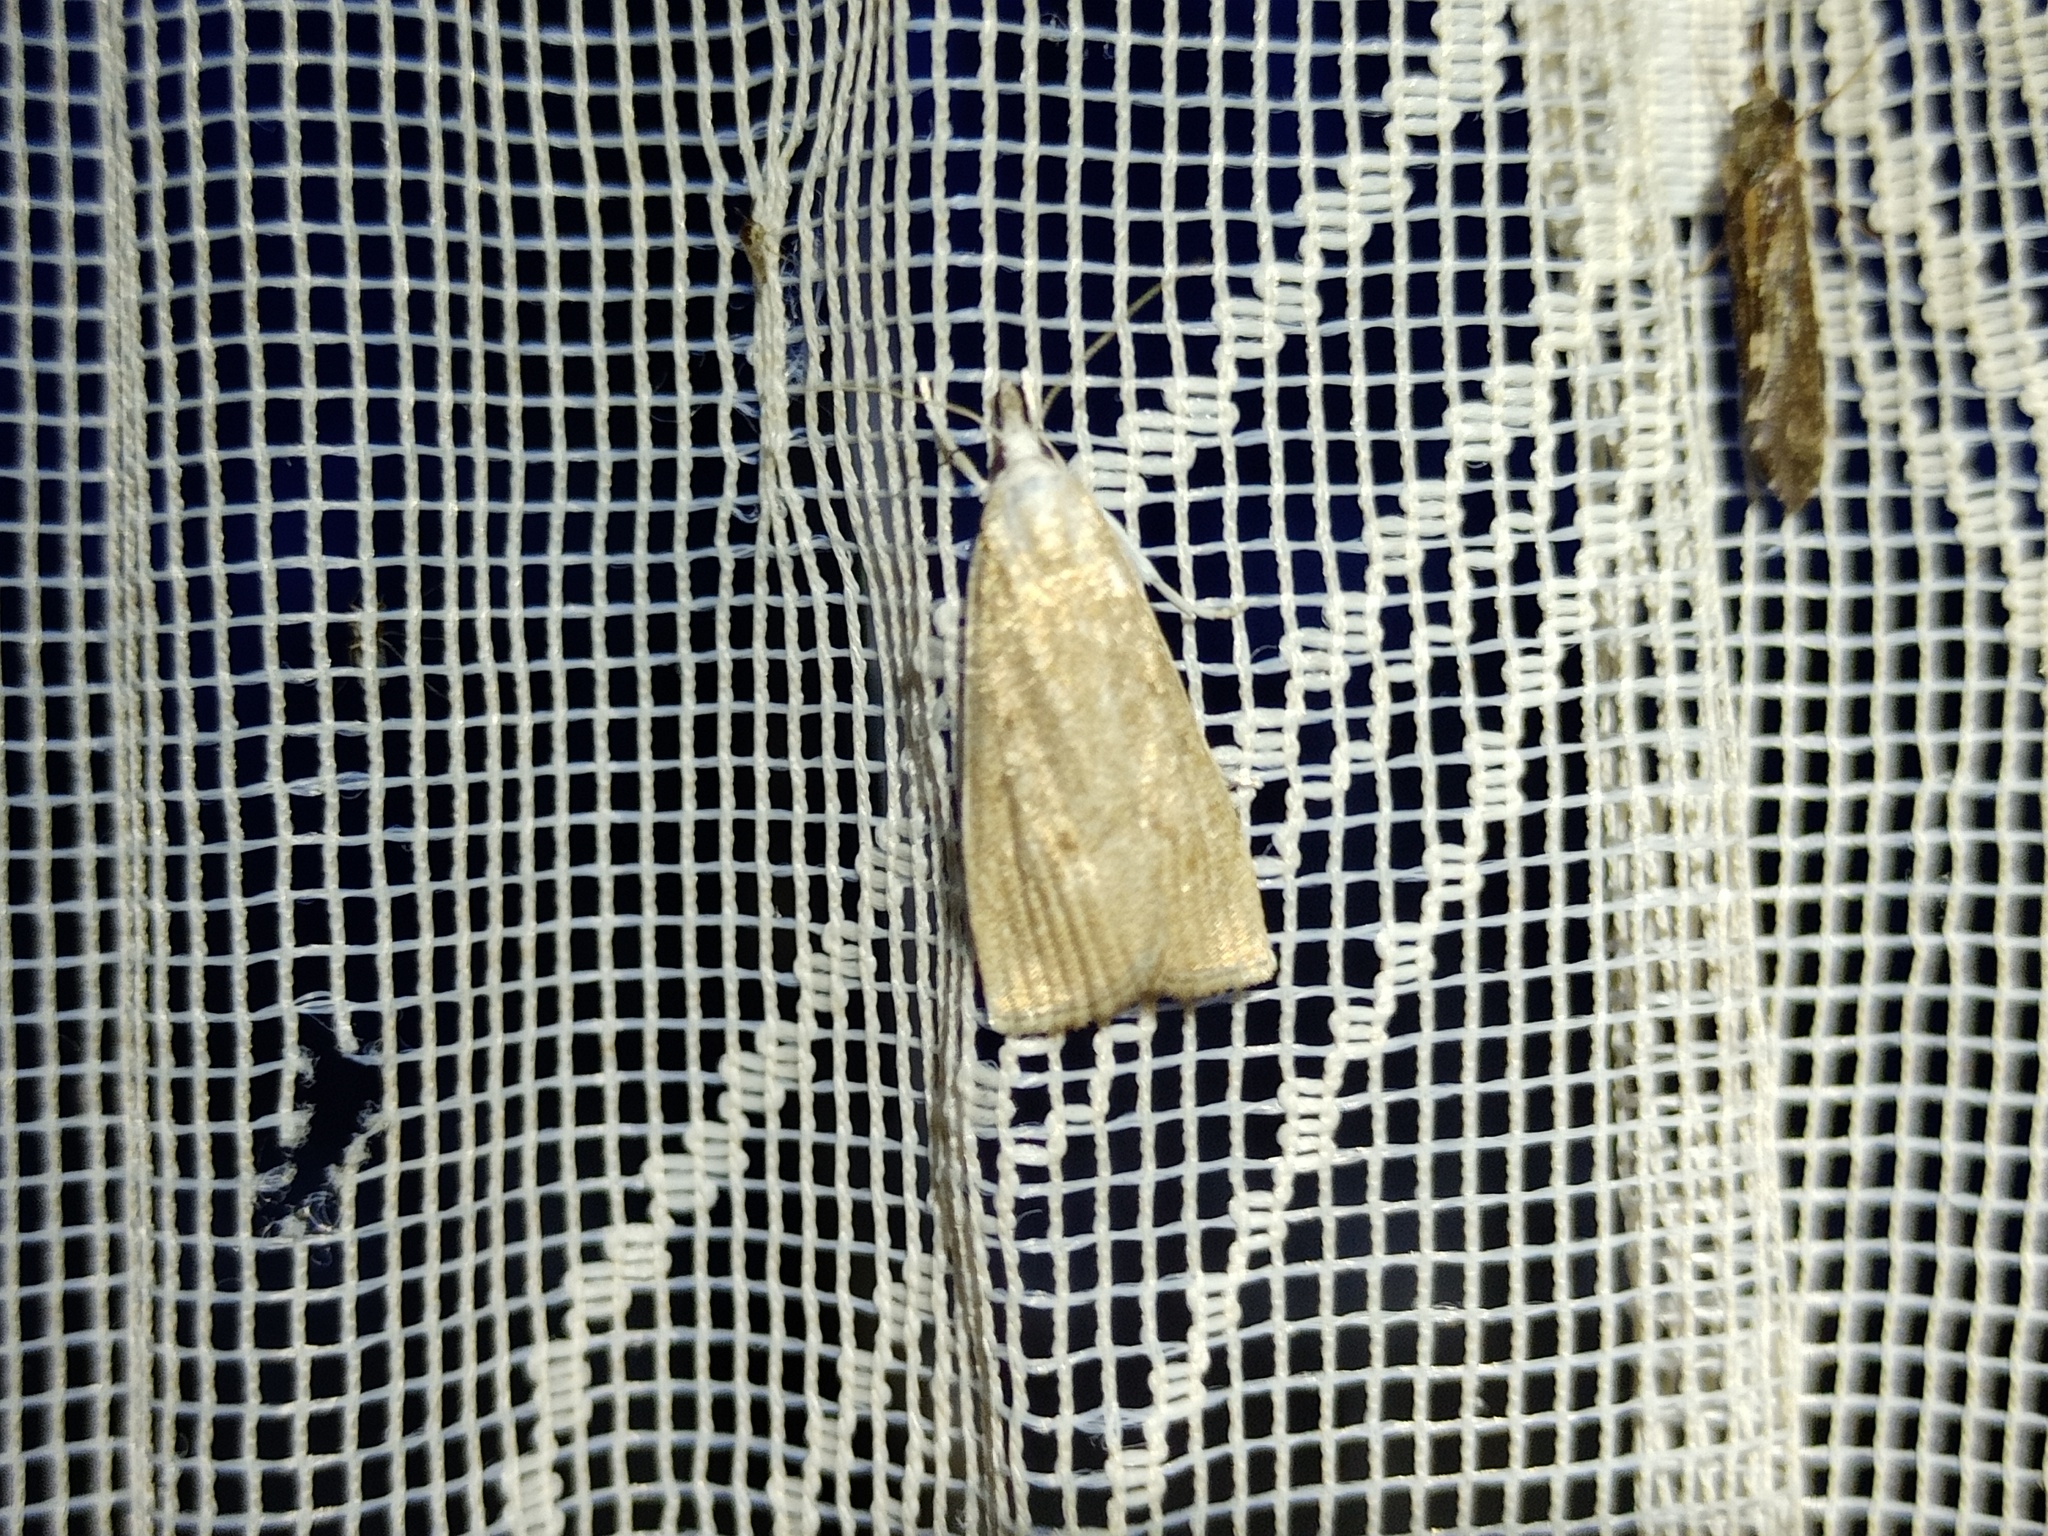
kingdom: Animalia
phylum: Arthropoda
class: Insecta
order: Lepidoptera
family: Crambidae
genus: Calamotropha
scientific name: Calamotropha paludella
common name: Bulrush veneer
